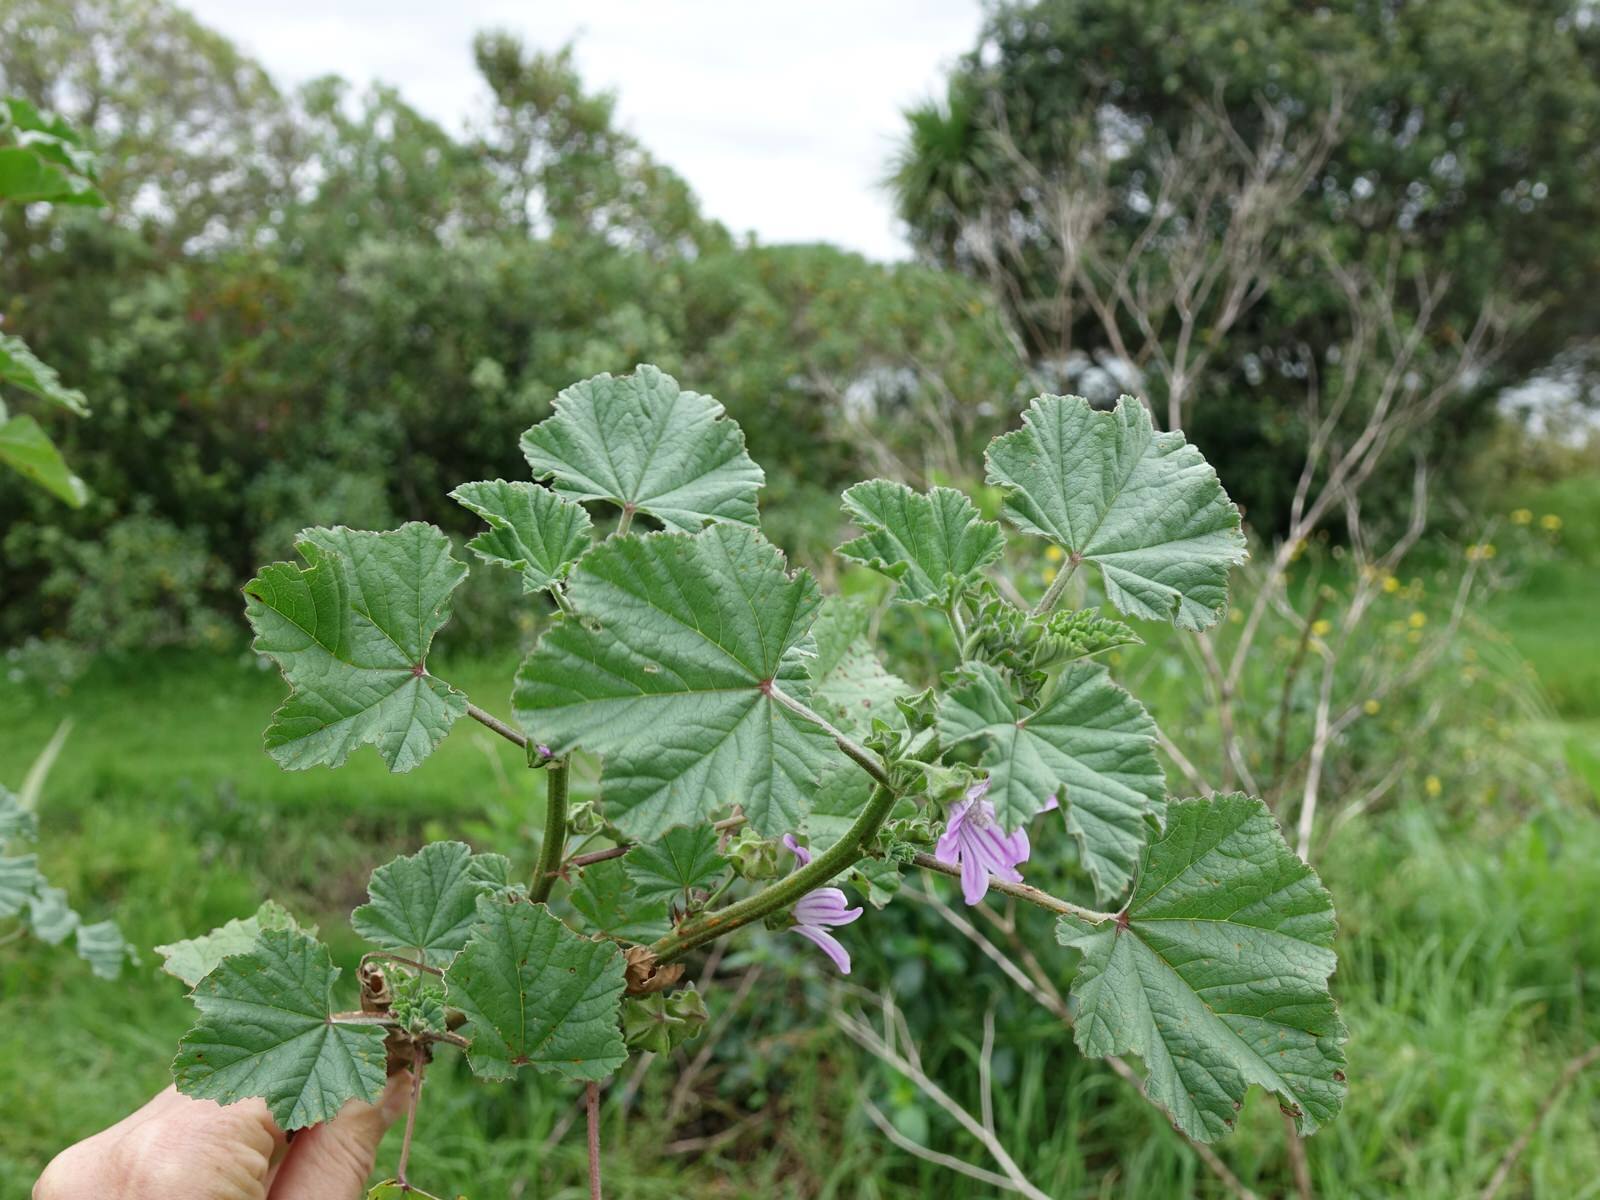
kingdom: Plantae
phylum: Tracheophyta
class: Magnoliopsida
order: Malvales
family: Malvaceae
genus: Malva
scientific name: Malva multiflora
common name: Cheeseweed
